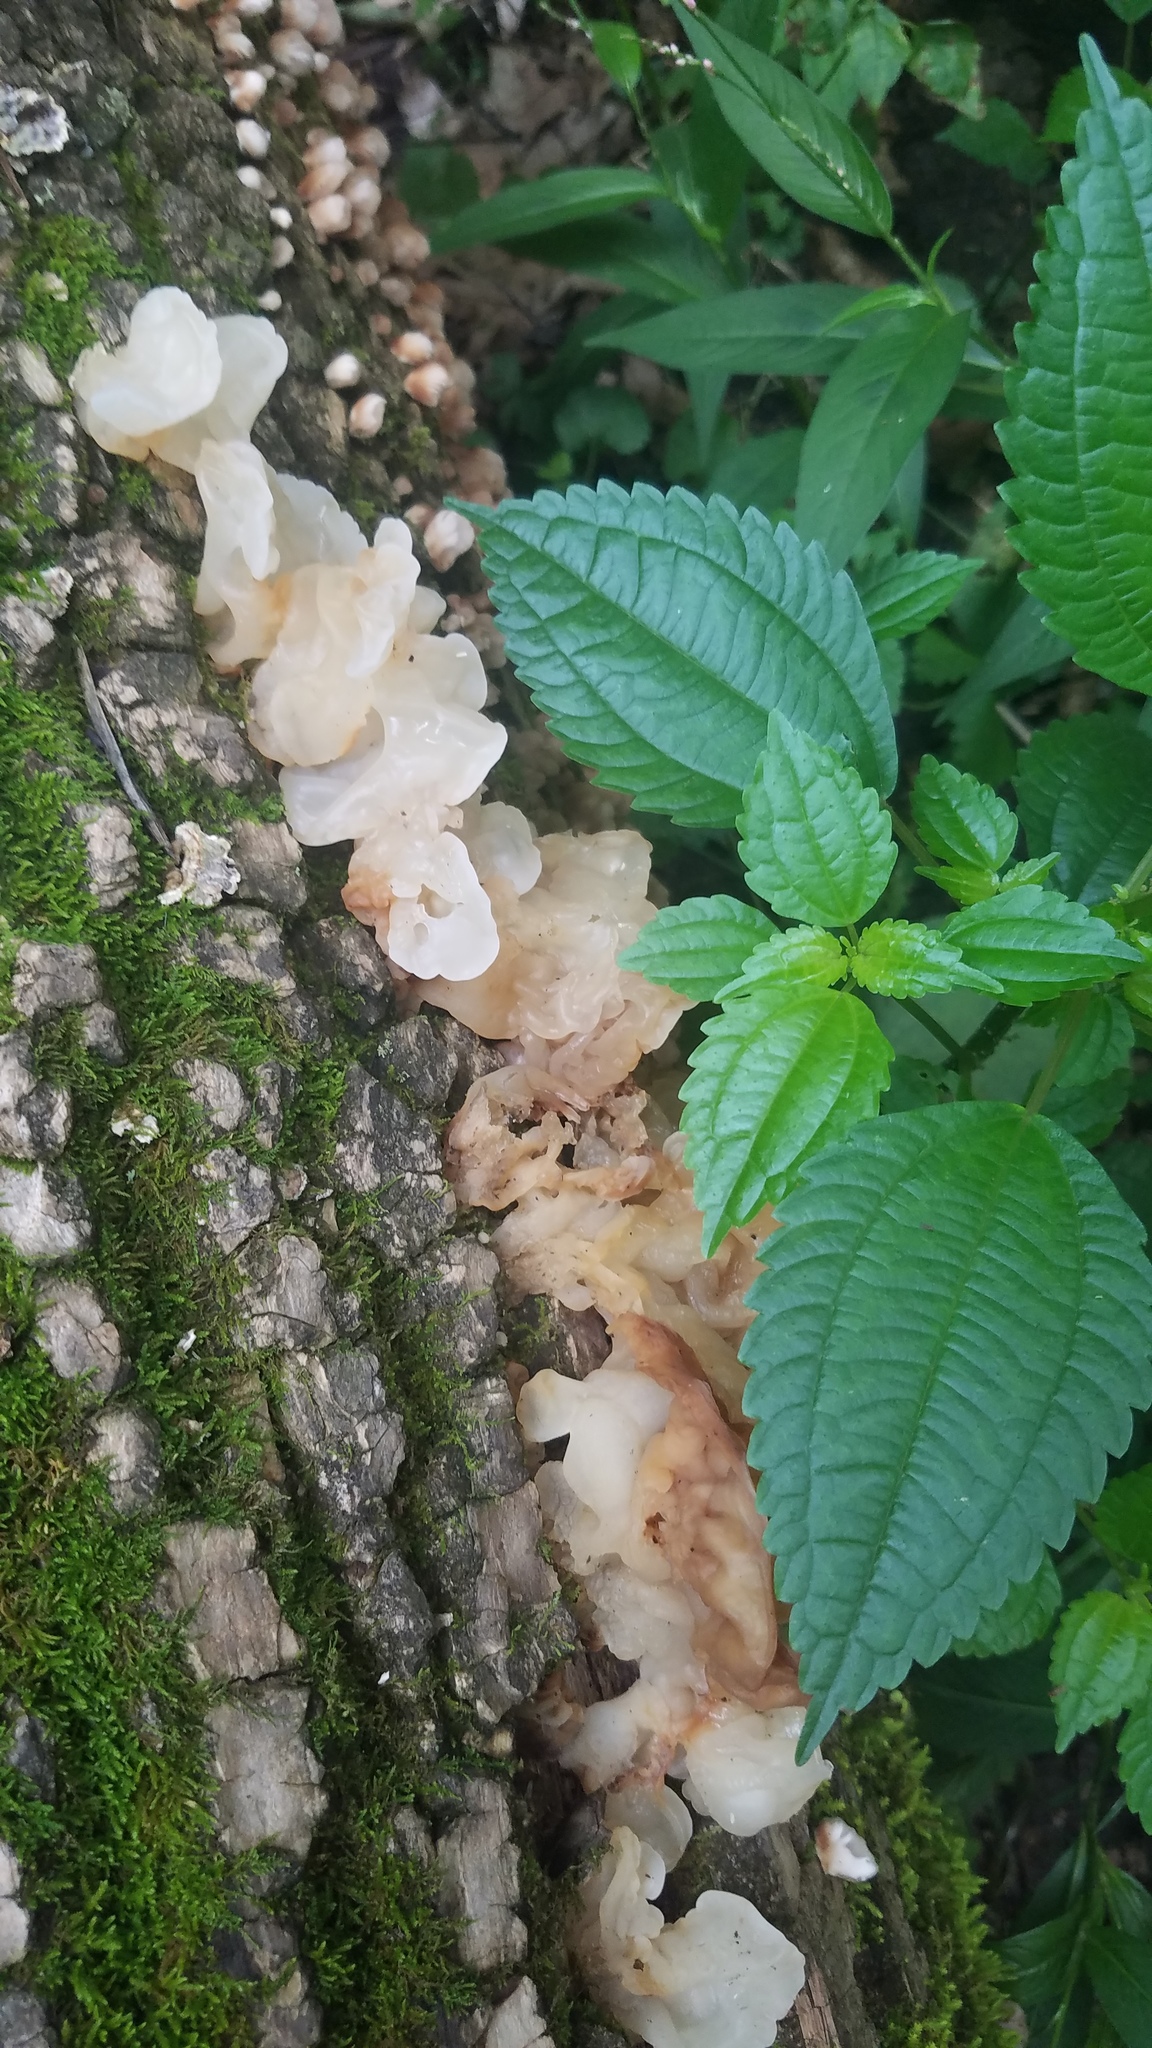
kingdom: Fungi
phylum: Basidiomycota
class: Agaricomycetes
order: Auriculariales
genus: Ductifera
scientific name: Ductifera pululahuana
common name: White jelly fungus
